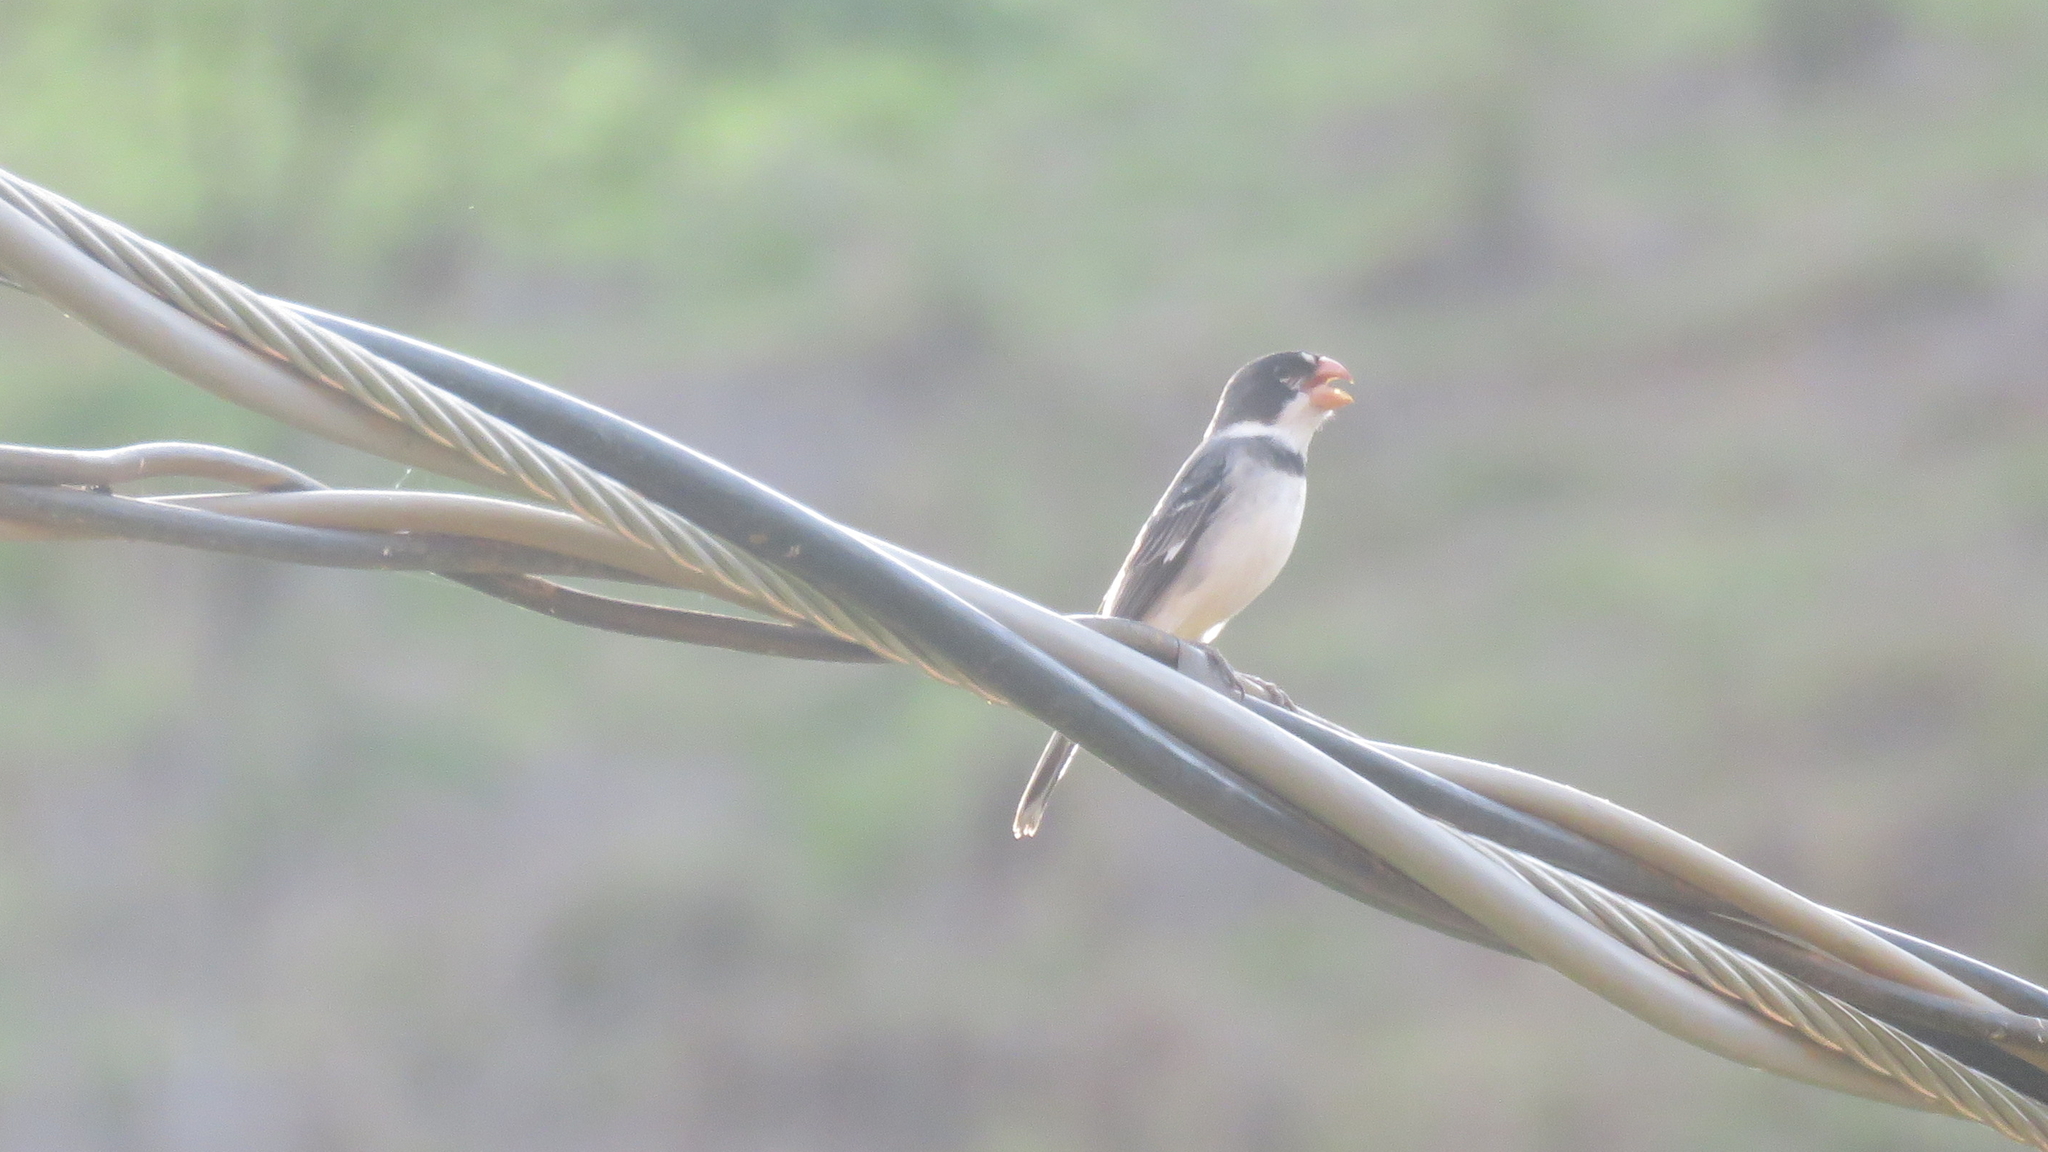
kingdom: Animalia
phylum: Chordata
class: Aves
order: Passeriformes
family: Thraupidae
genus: Sporophila
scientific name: Sporophila albogularis
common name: White-throated seedeater
